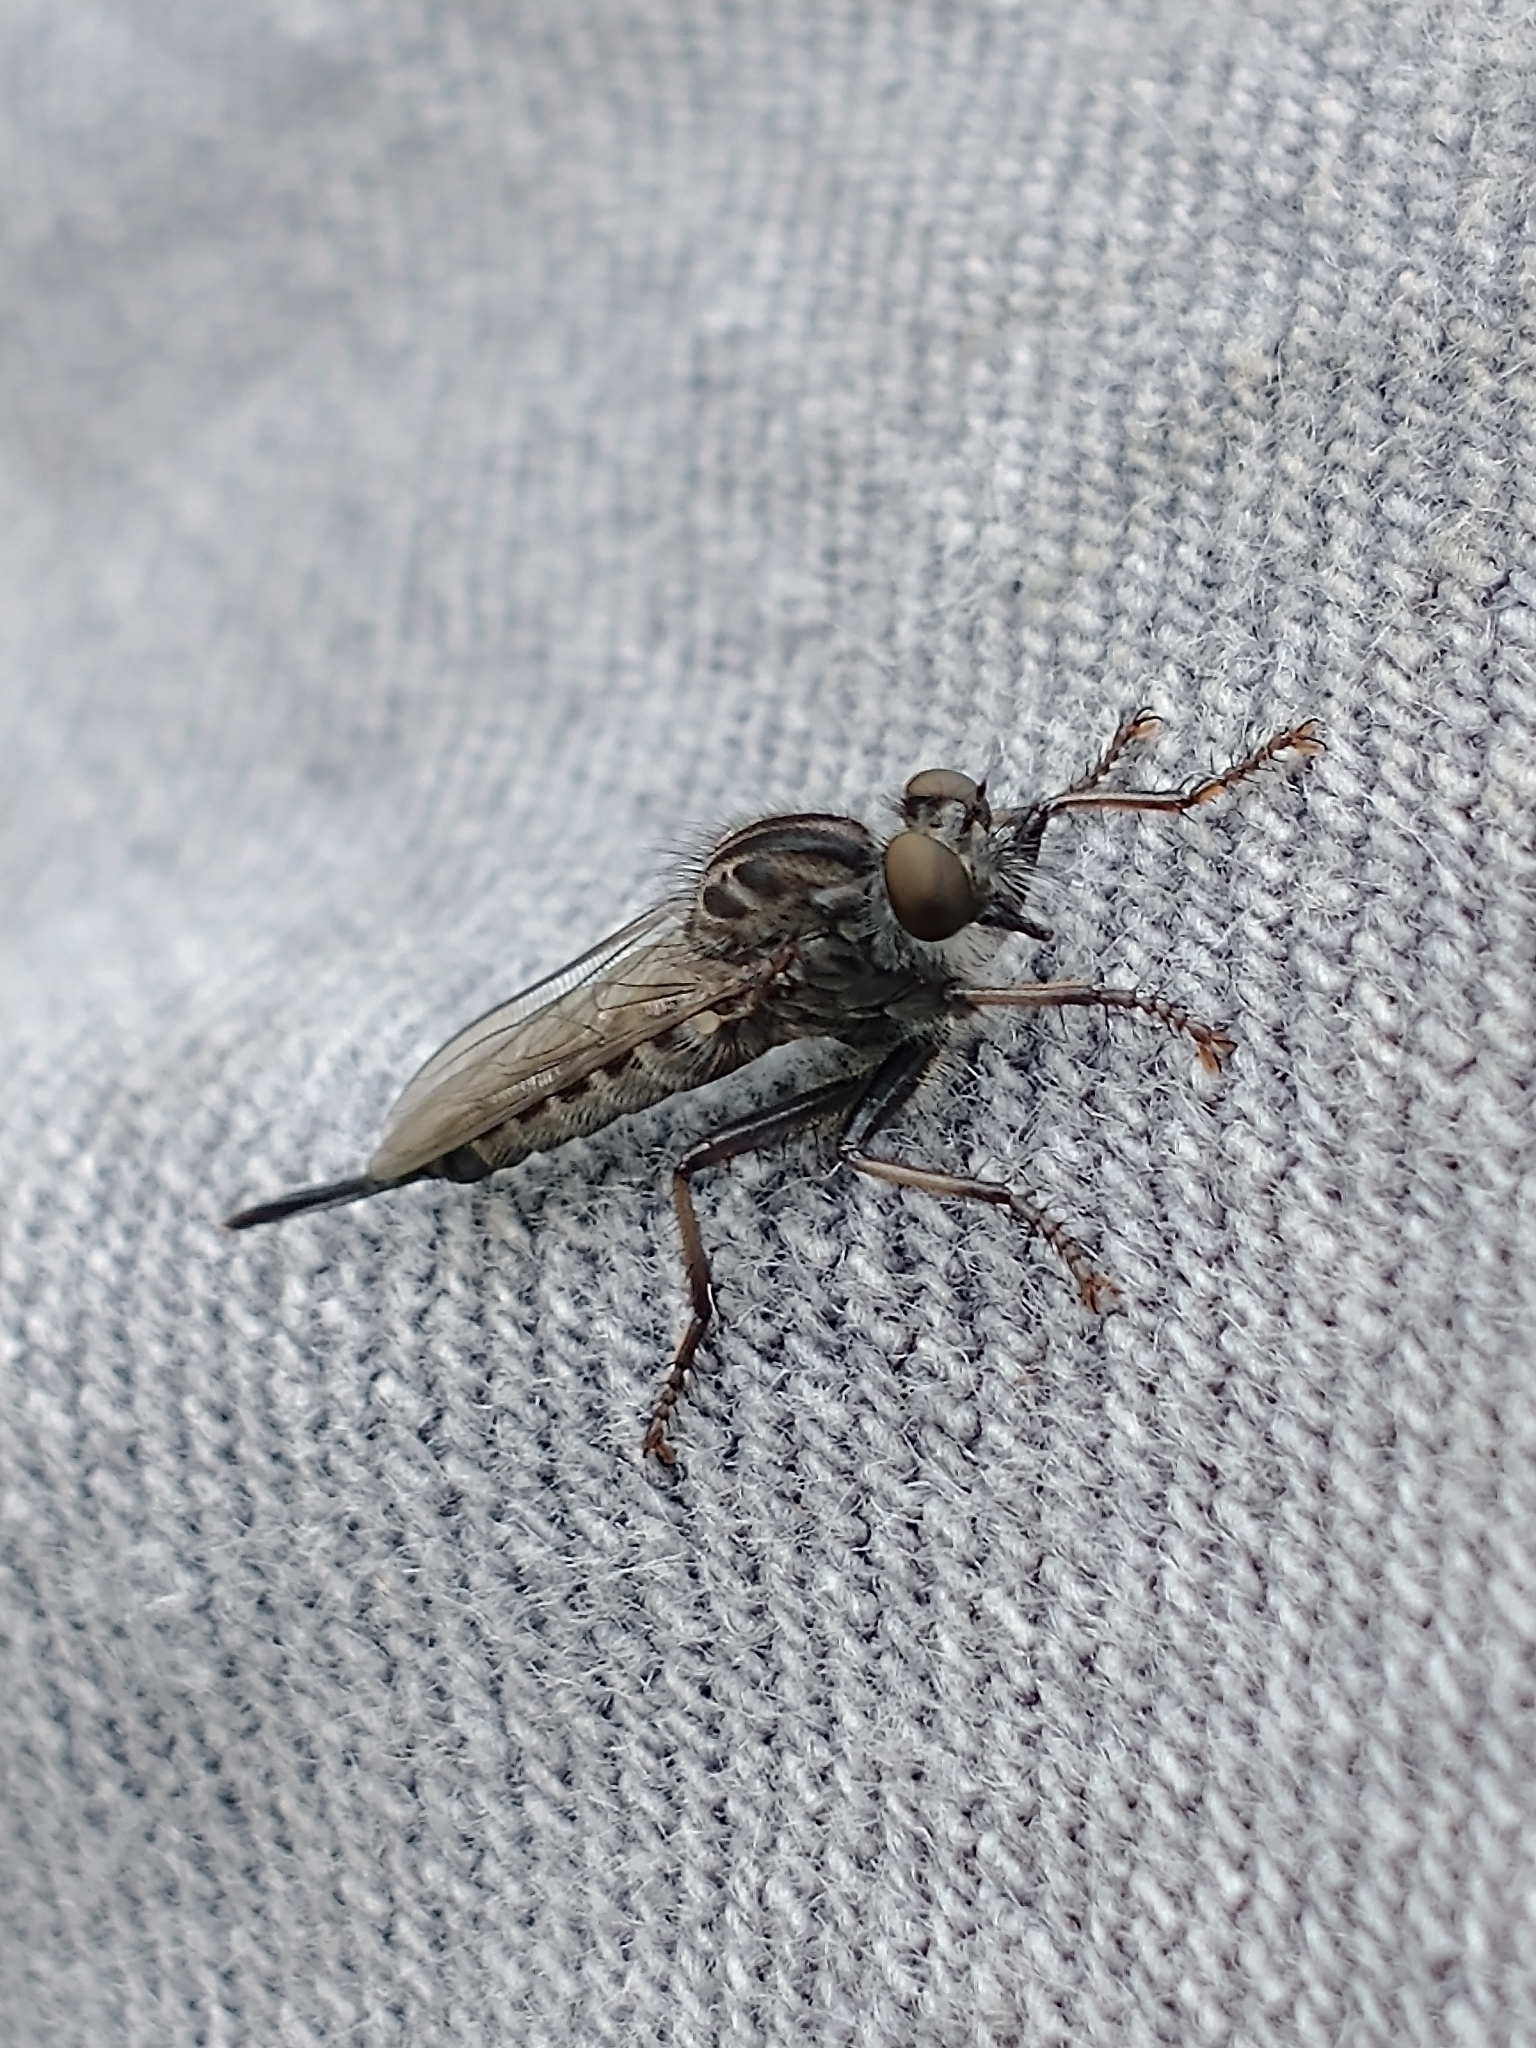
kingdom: Animalia
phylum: Arthropoda
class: Insecta
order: Diptera
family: Asilidae
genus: Efferia
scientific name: Efferia aestuans
